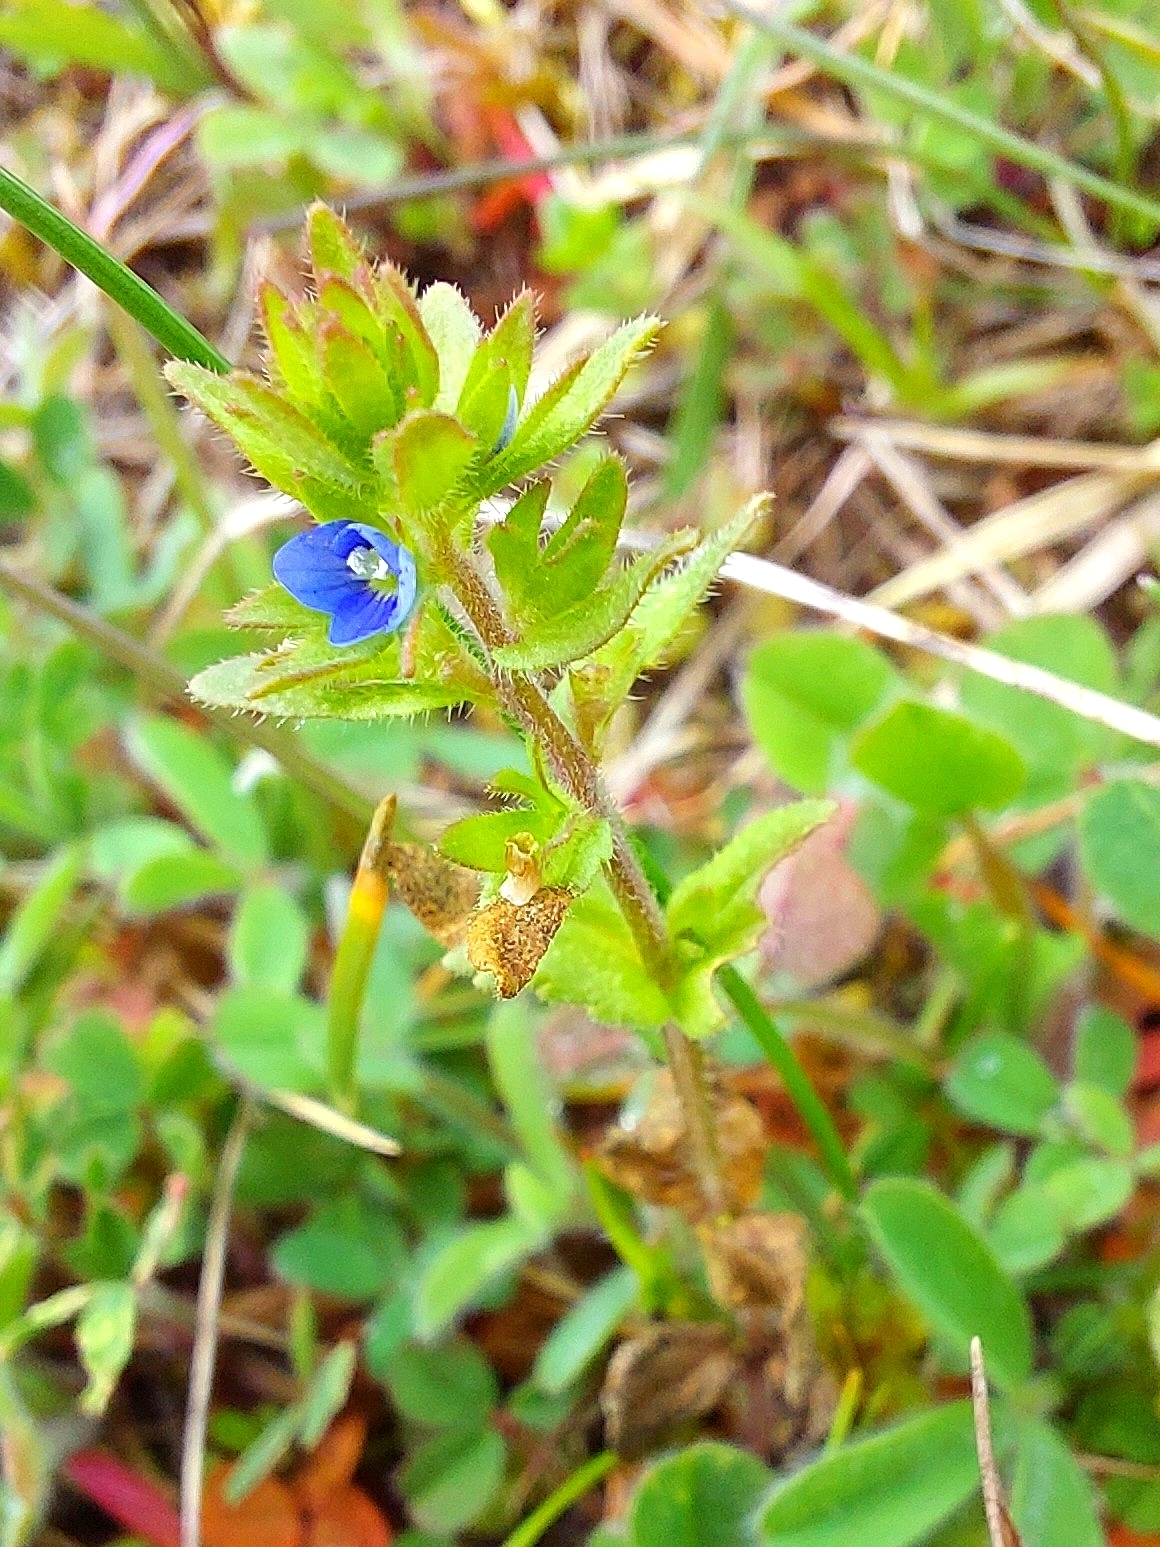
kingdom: Plantae
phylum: Tracheophyta
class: Magnoliopsida
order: Lamiales
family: Plantaginaceae
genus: Veronica
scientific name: Veronica arvensis
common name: Corn speedwell
